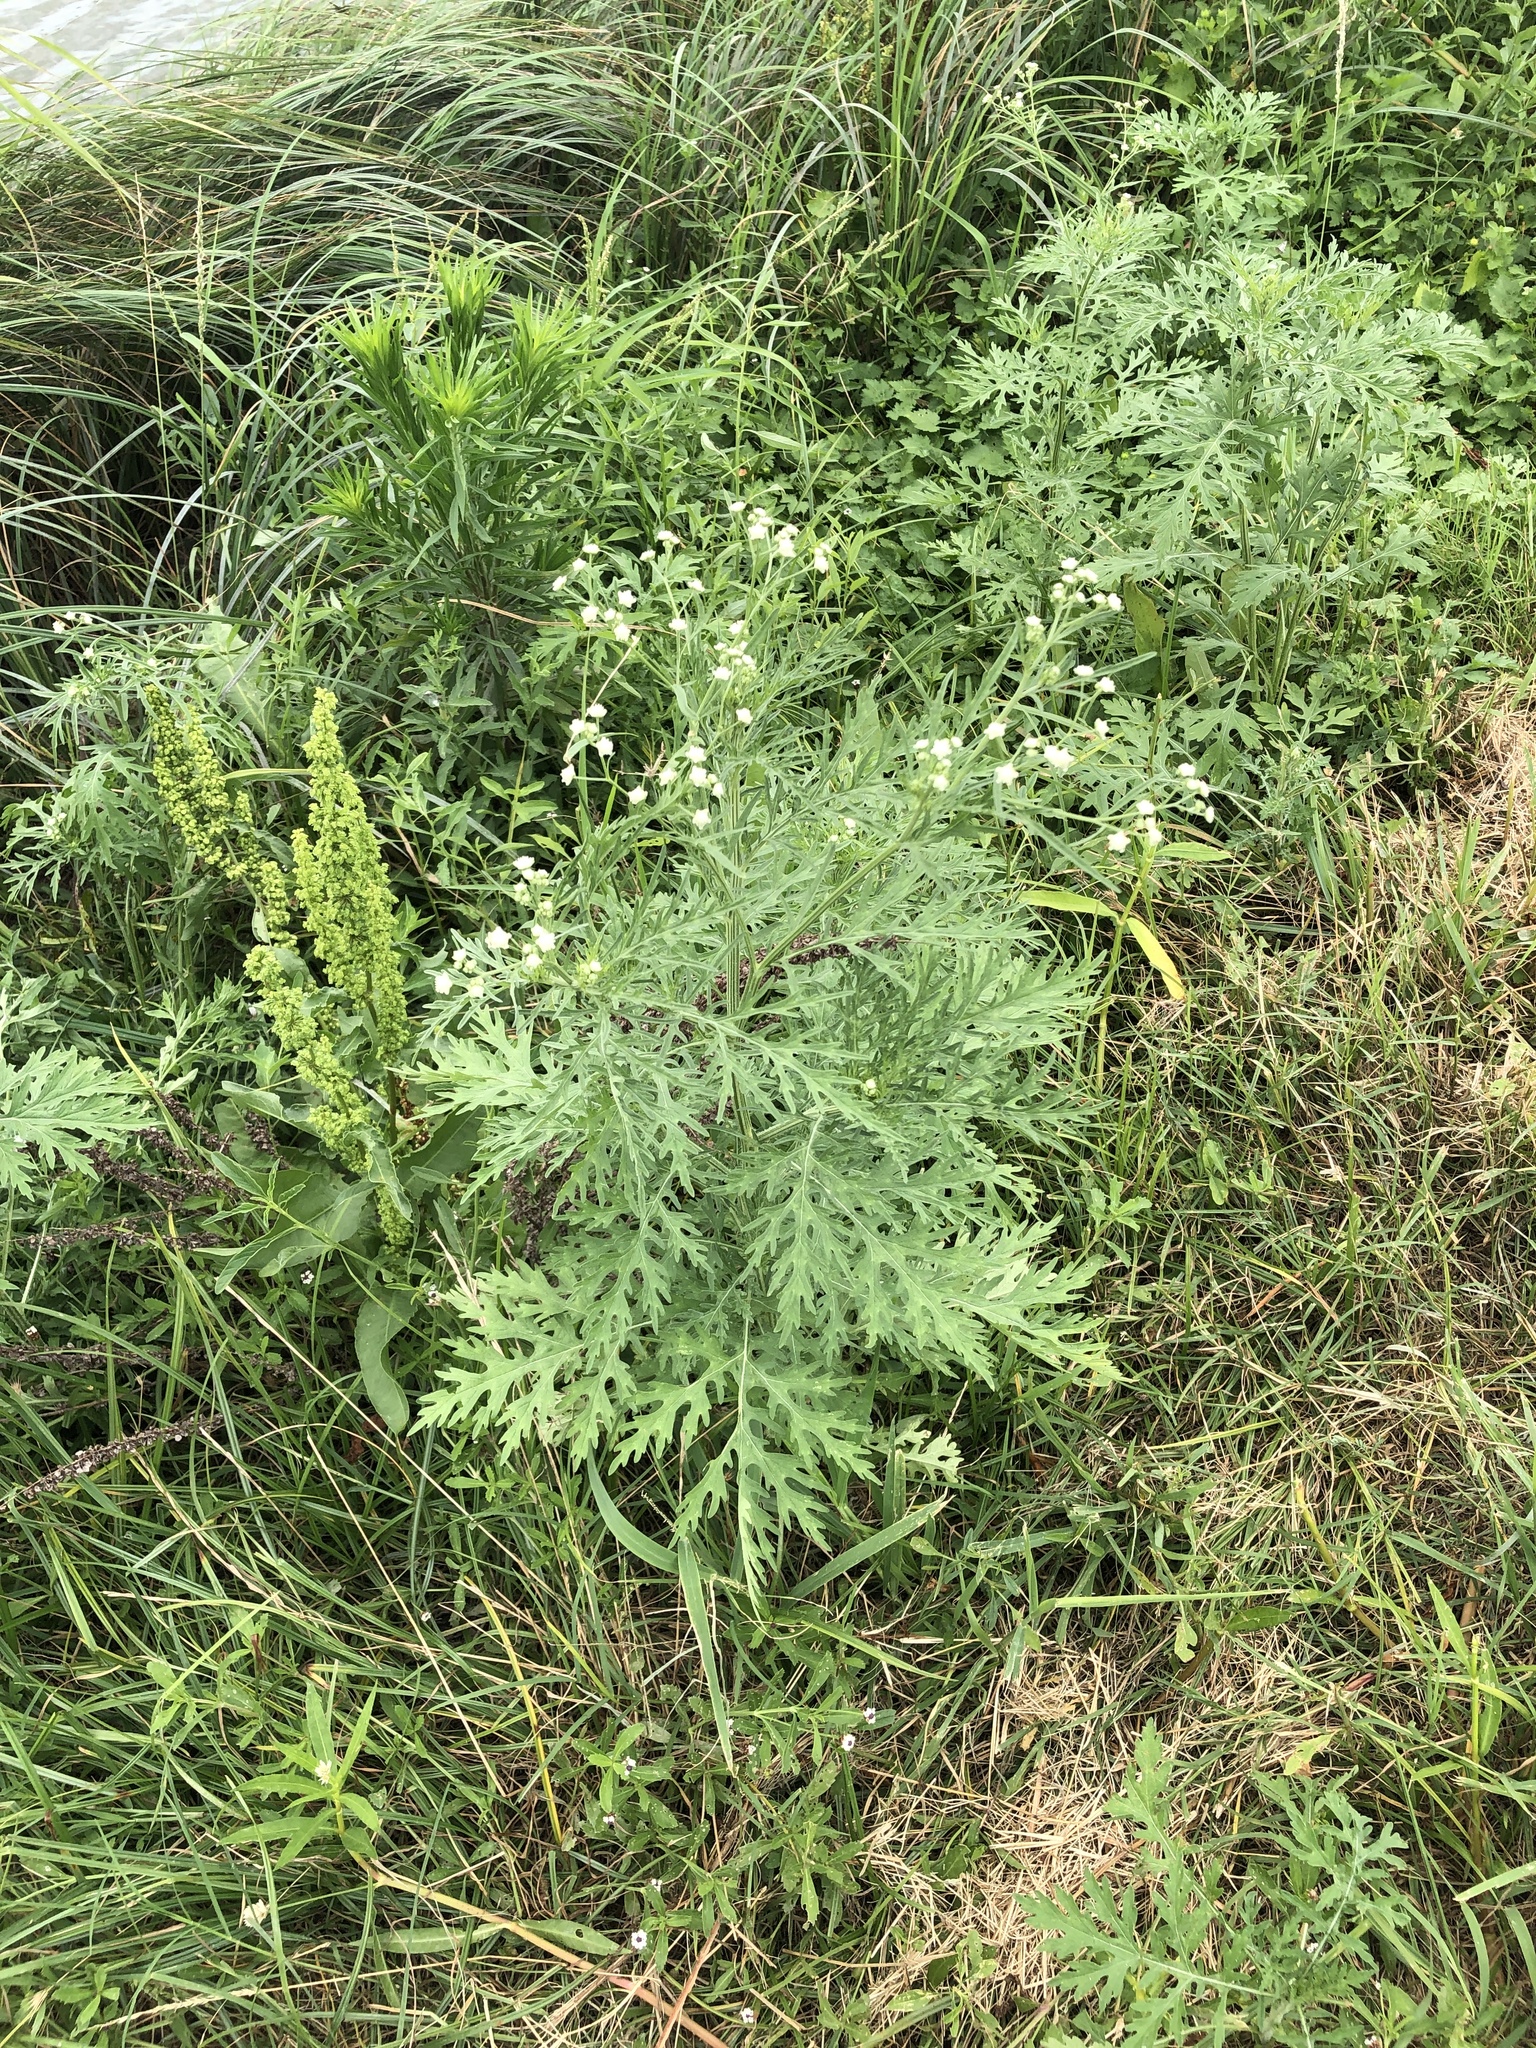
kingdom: Plantae
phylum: Tracheophyta
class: Magnoliopsida
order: Asterales
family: Asteraceae
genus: Parthenium
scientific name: Parthenium hysterophorus
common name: Santa maria feverfew
